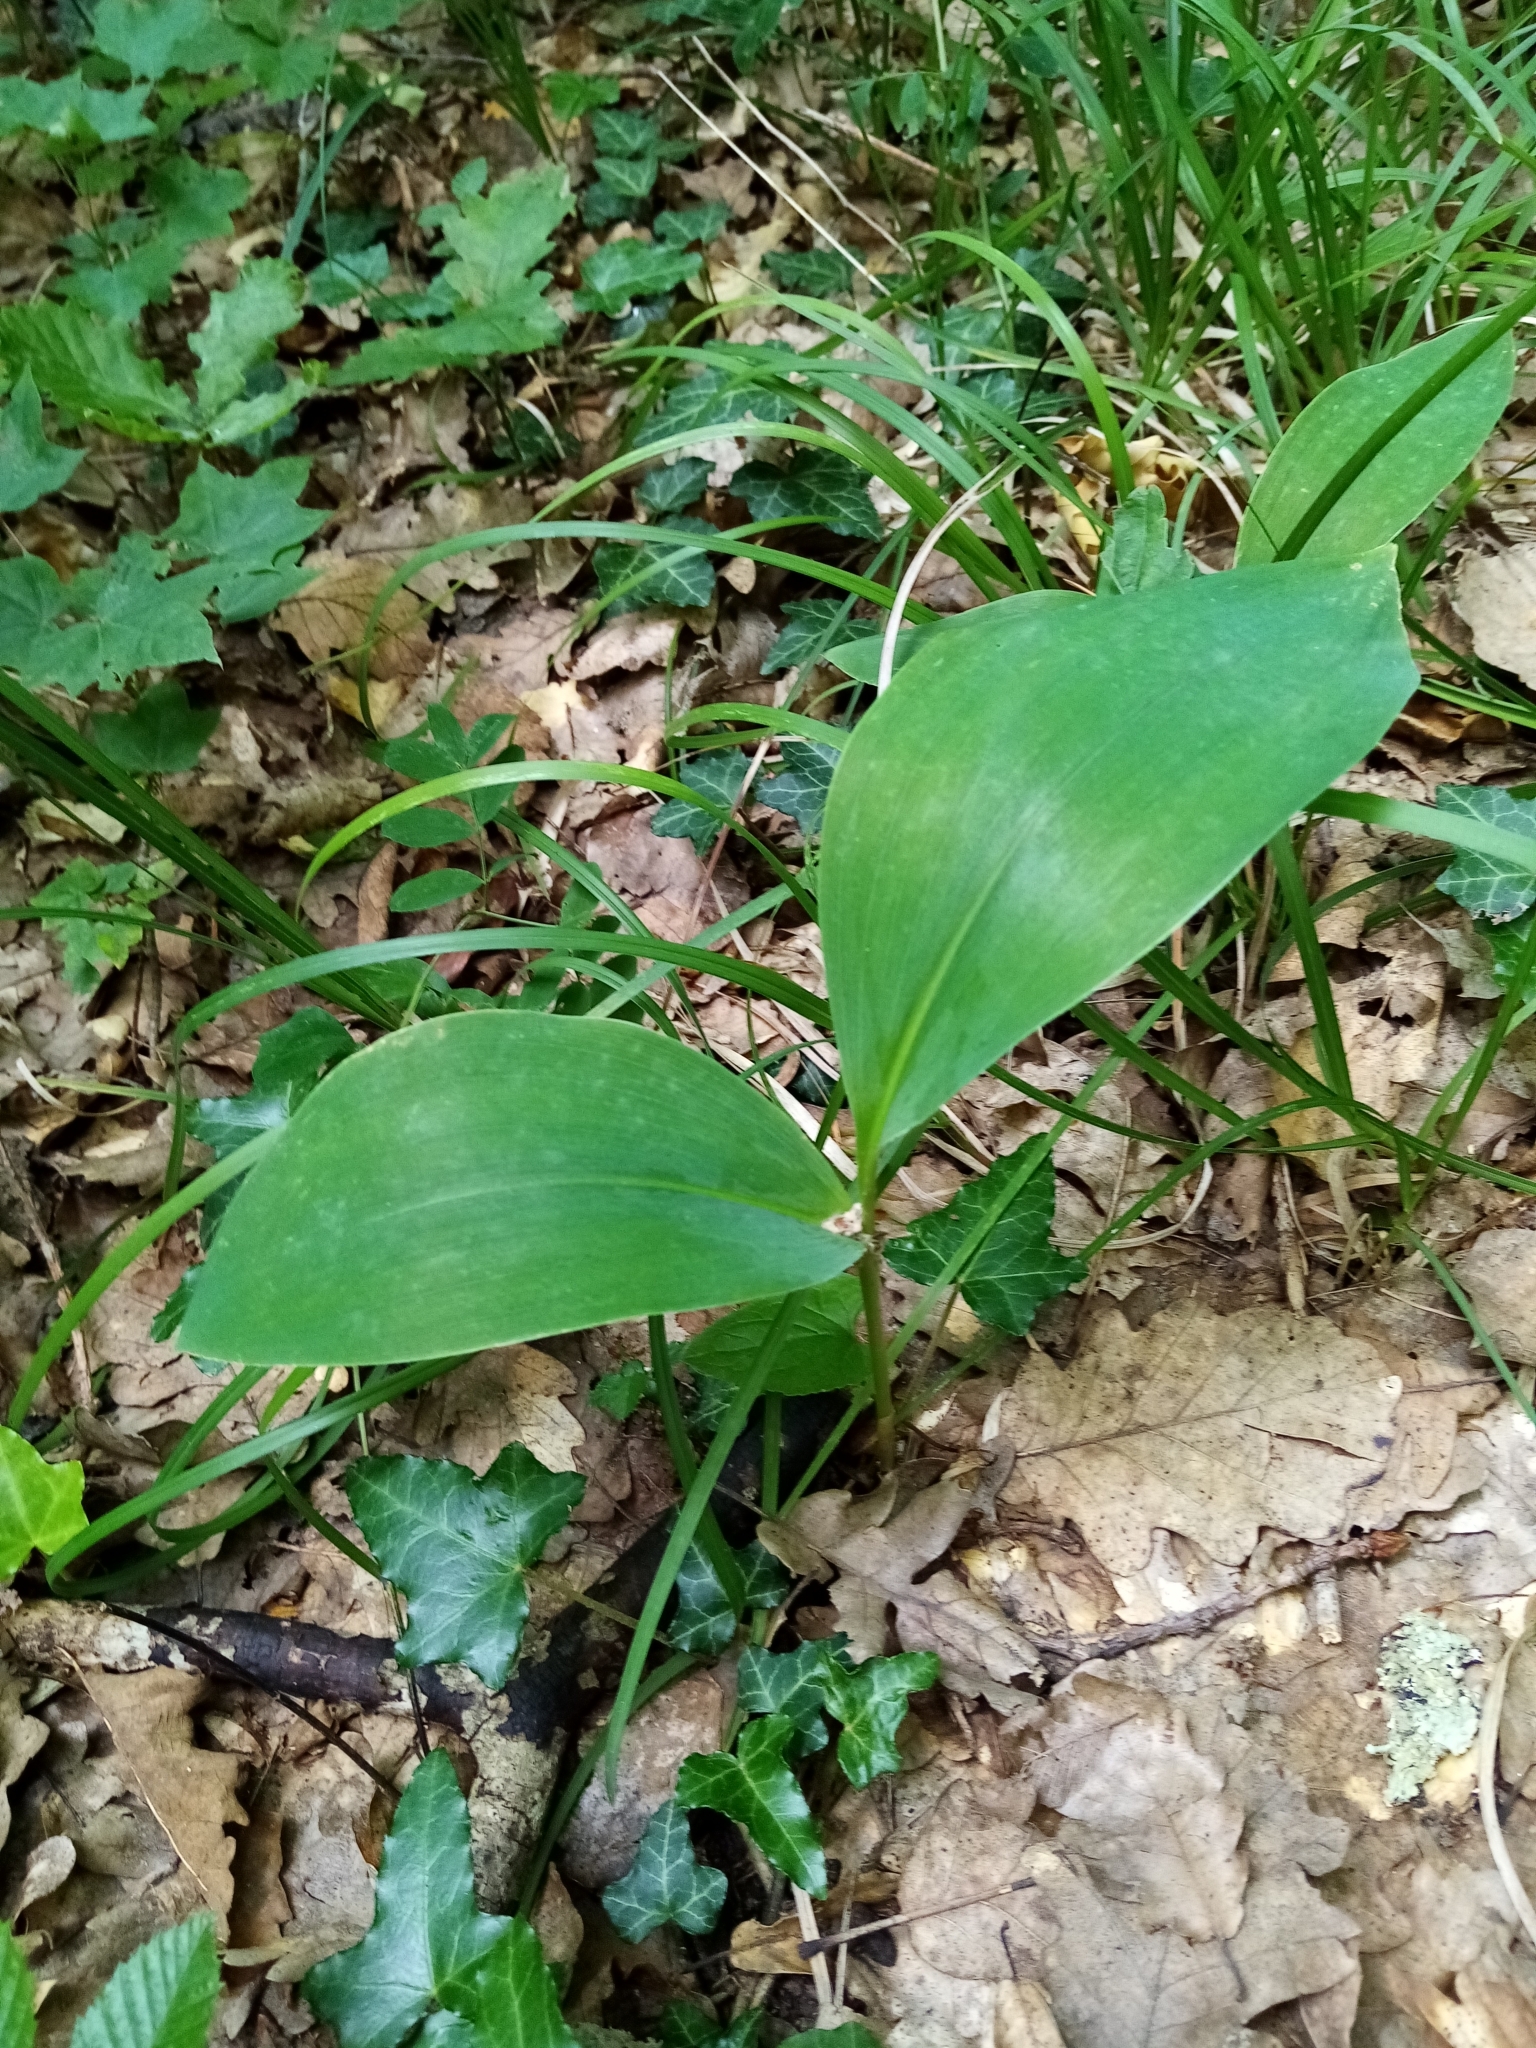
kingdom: Plantae
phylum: Tracheophyta
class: Liliopsida
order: Asparagales
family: Asparagaceae
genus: Convallaria
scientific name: Convallaria majalis
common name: Lily-of-the-valley
